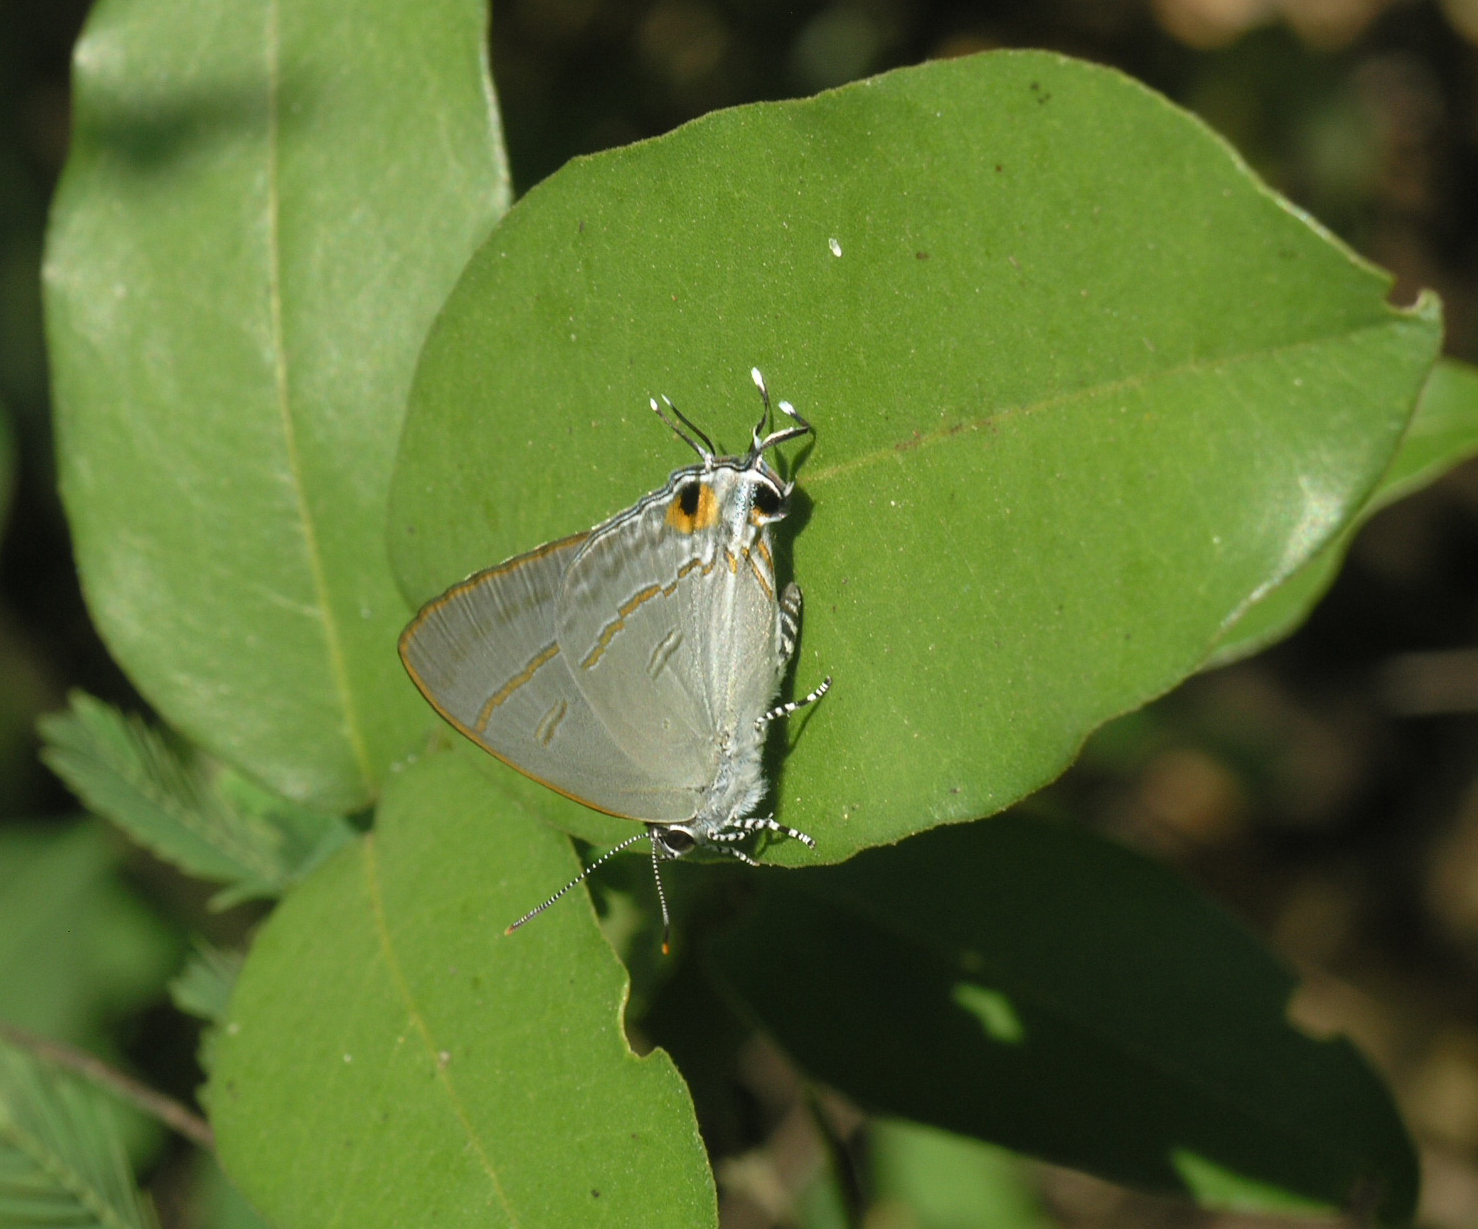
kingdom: Animalia
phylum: Arthropoda
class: Insecta
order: Lepidoptera
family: Lycaenidae
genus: Hypolycaena
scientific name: Hypolycaena erylus
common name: Common tit
